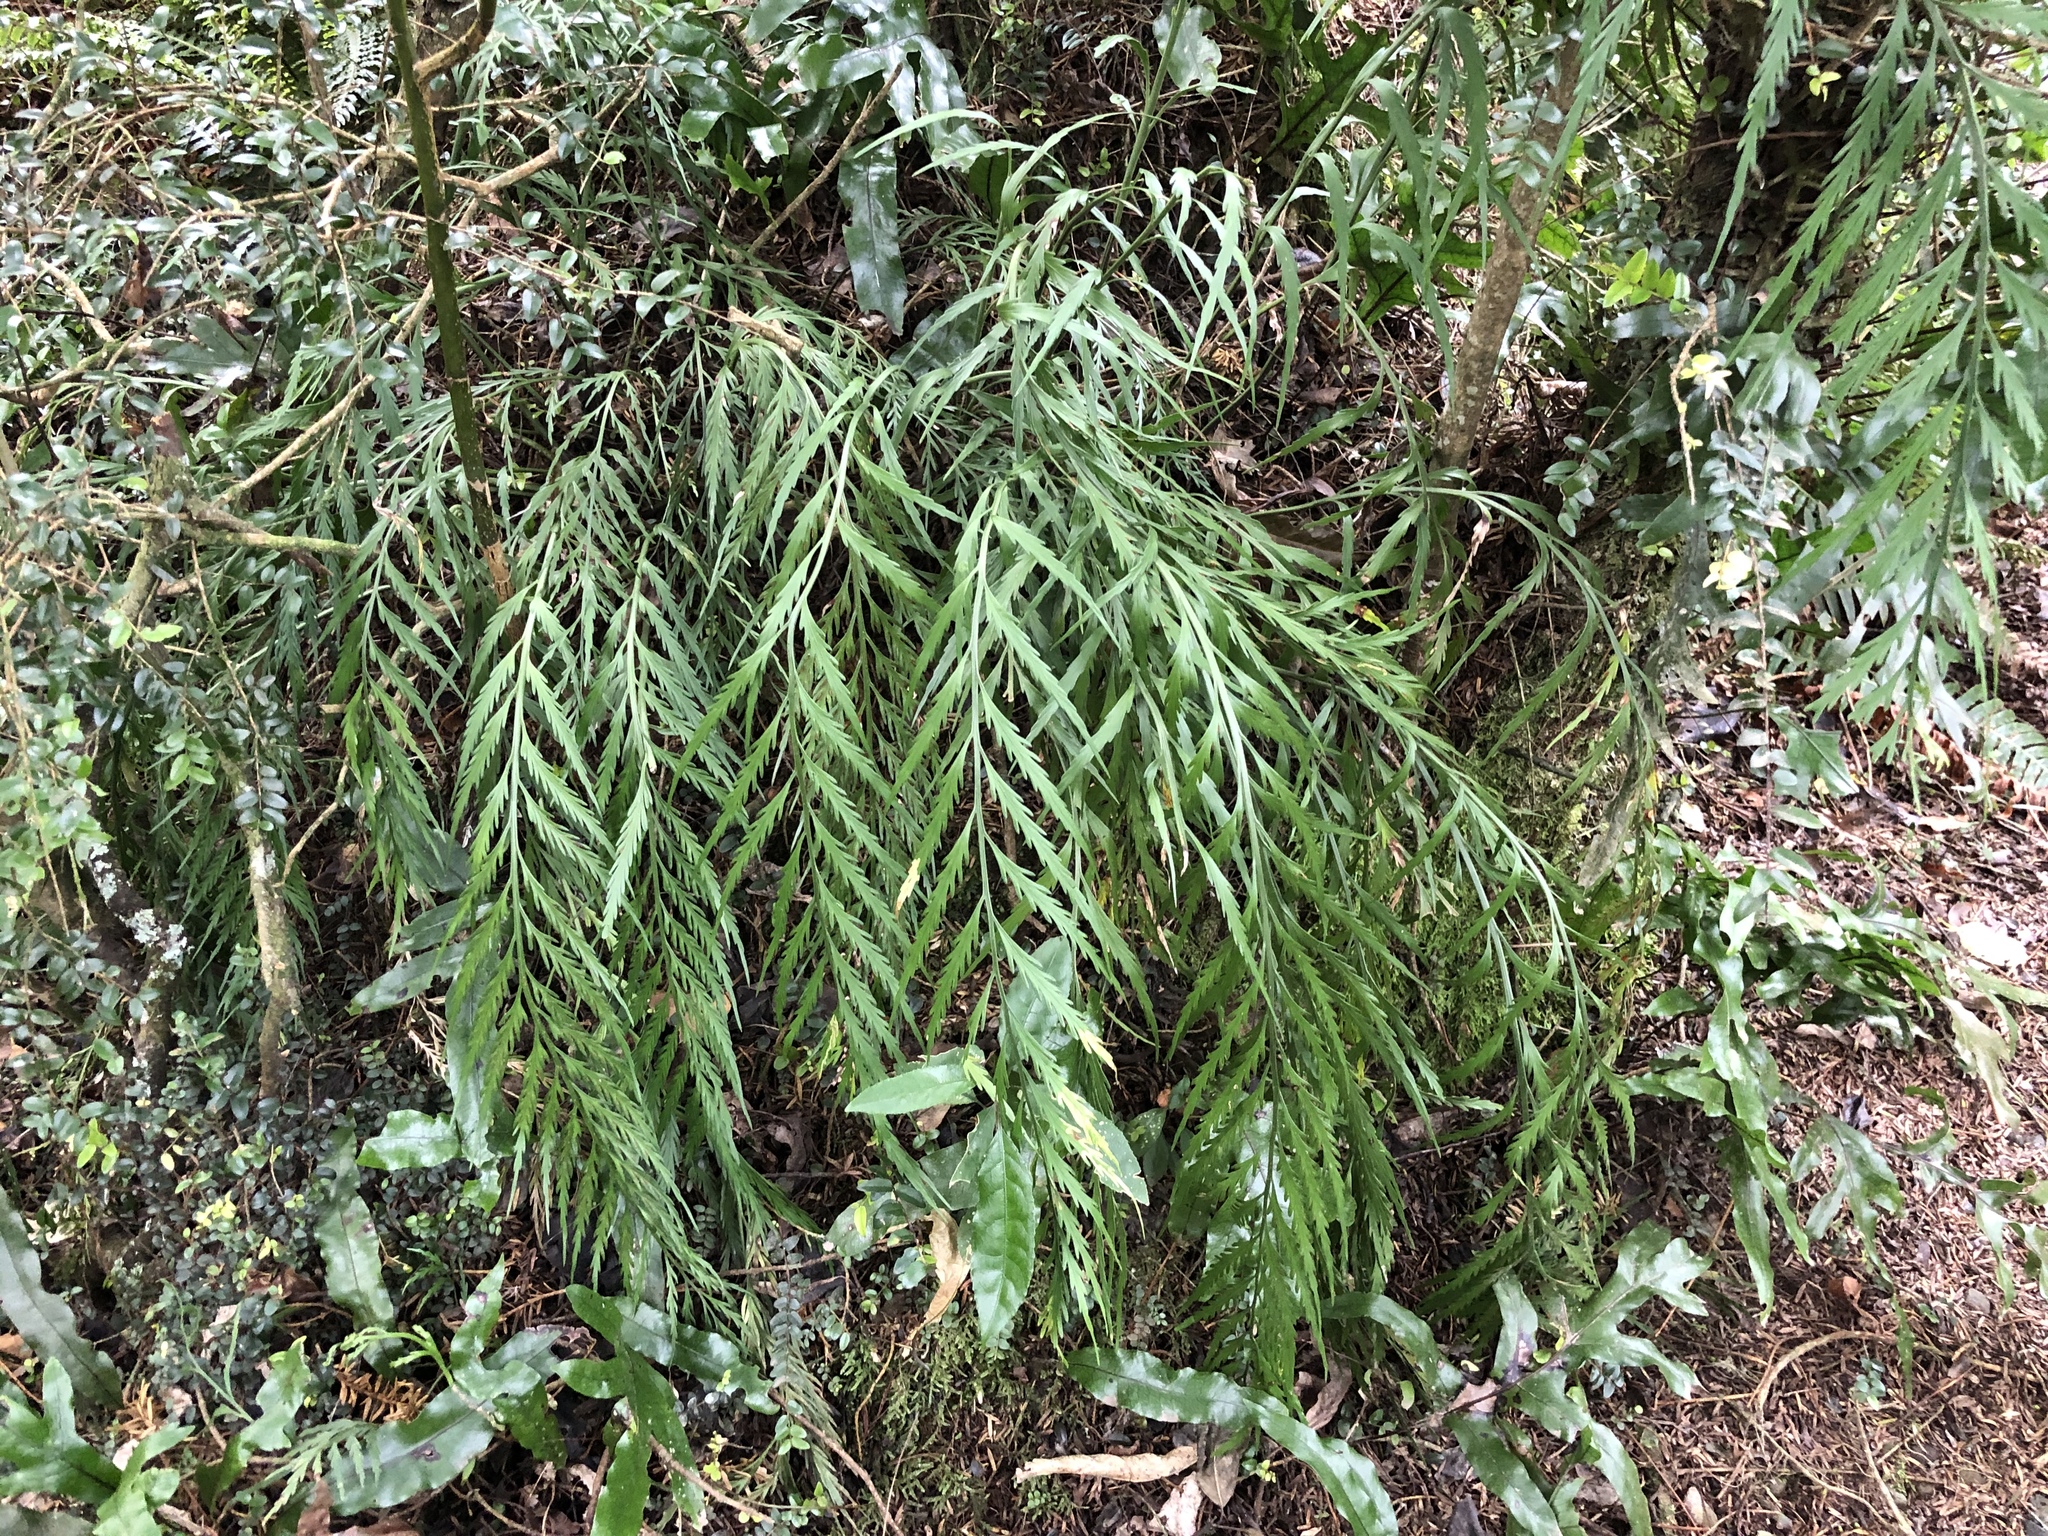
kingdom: Plantae
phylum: Tracheophyta
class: Polypodiopsida
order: Polypodiales
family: Aspleniaceae
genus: Asplenium
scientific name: Asplenium flaccidum
